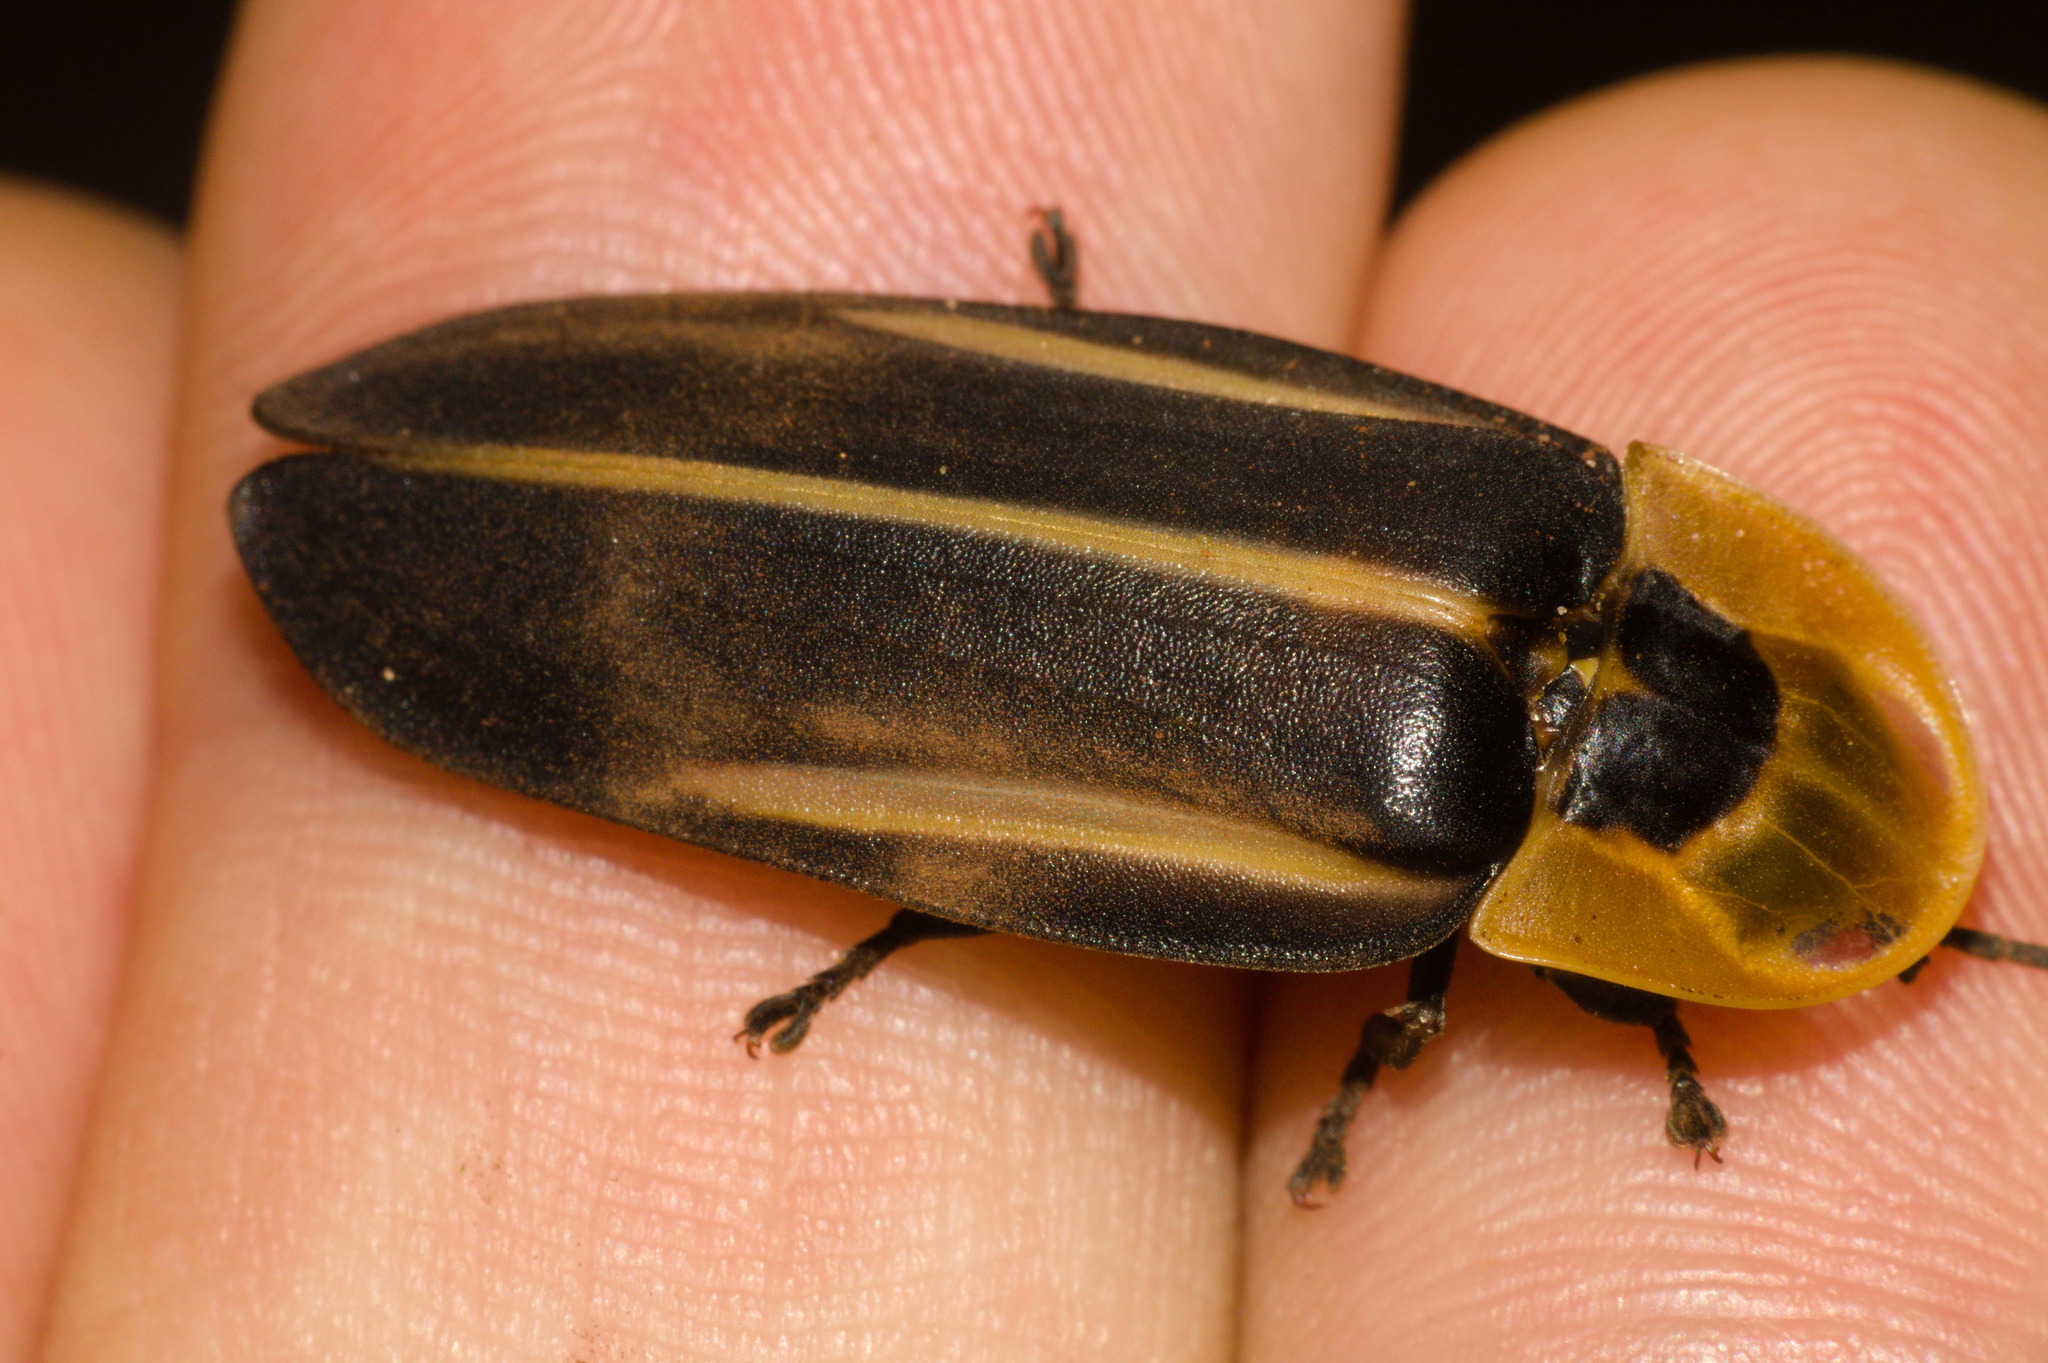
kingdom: Animalia
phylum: Arthropoda
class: Insecta
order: Coleoptera
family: Lampyridae
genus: Cratomorphus
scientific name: Cratomorphus diaphanus
